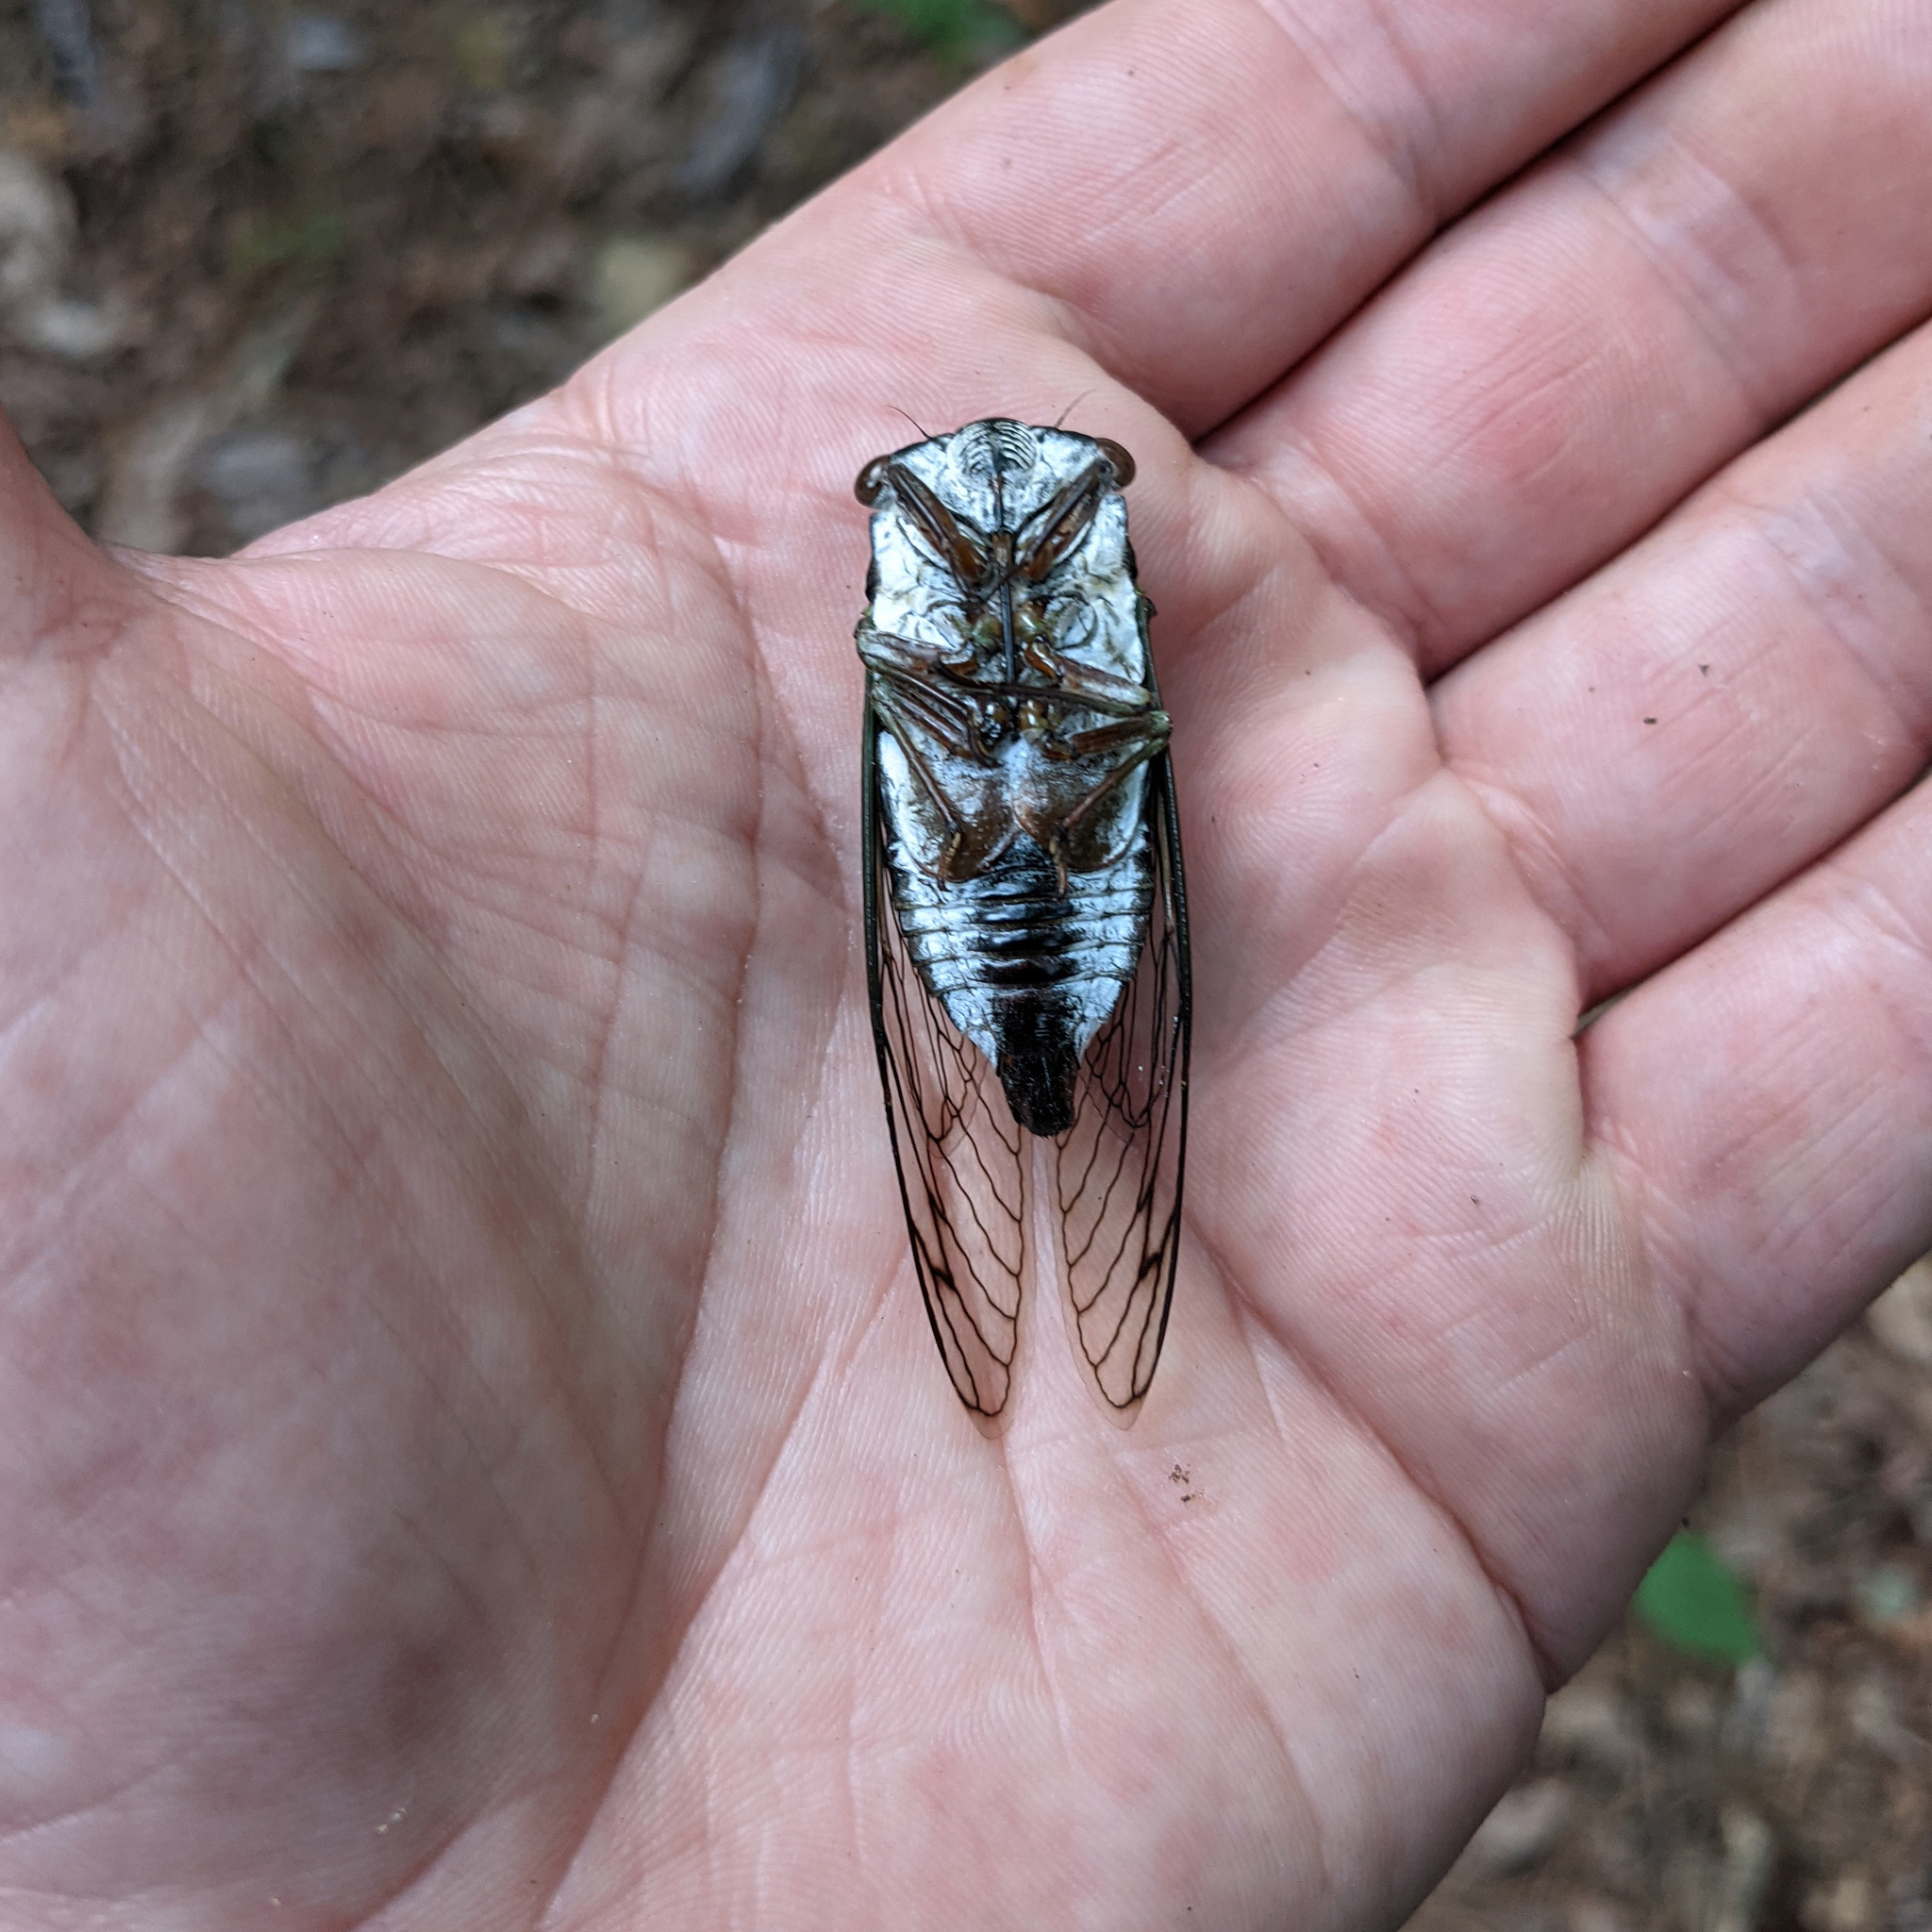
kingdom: Animalia
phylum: Arthropoda
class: Insecta
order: Hemiptera
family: Cicadidae
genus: Neotibicen
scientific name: Neotibicen lyricen
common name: Lyric cicada
